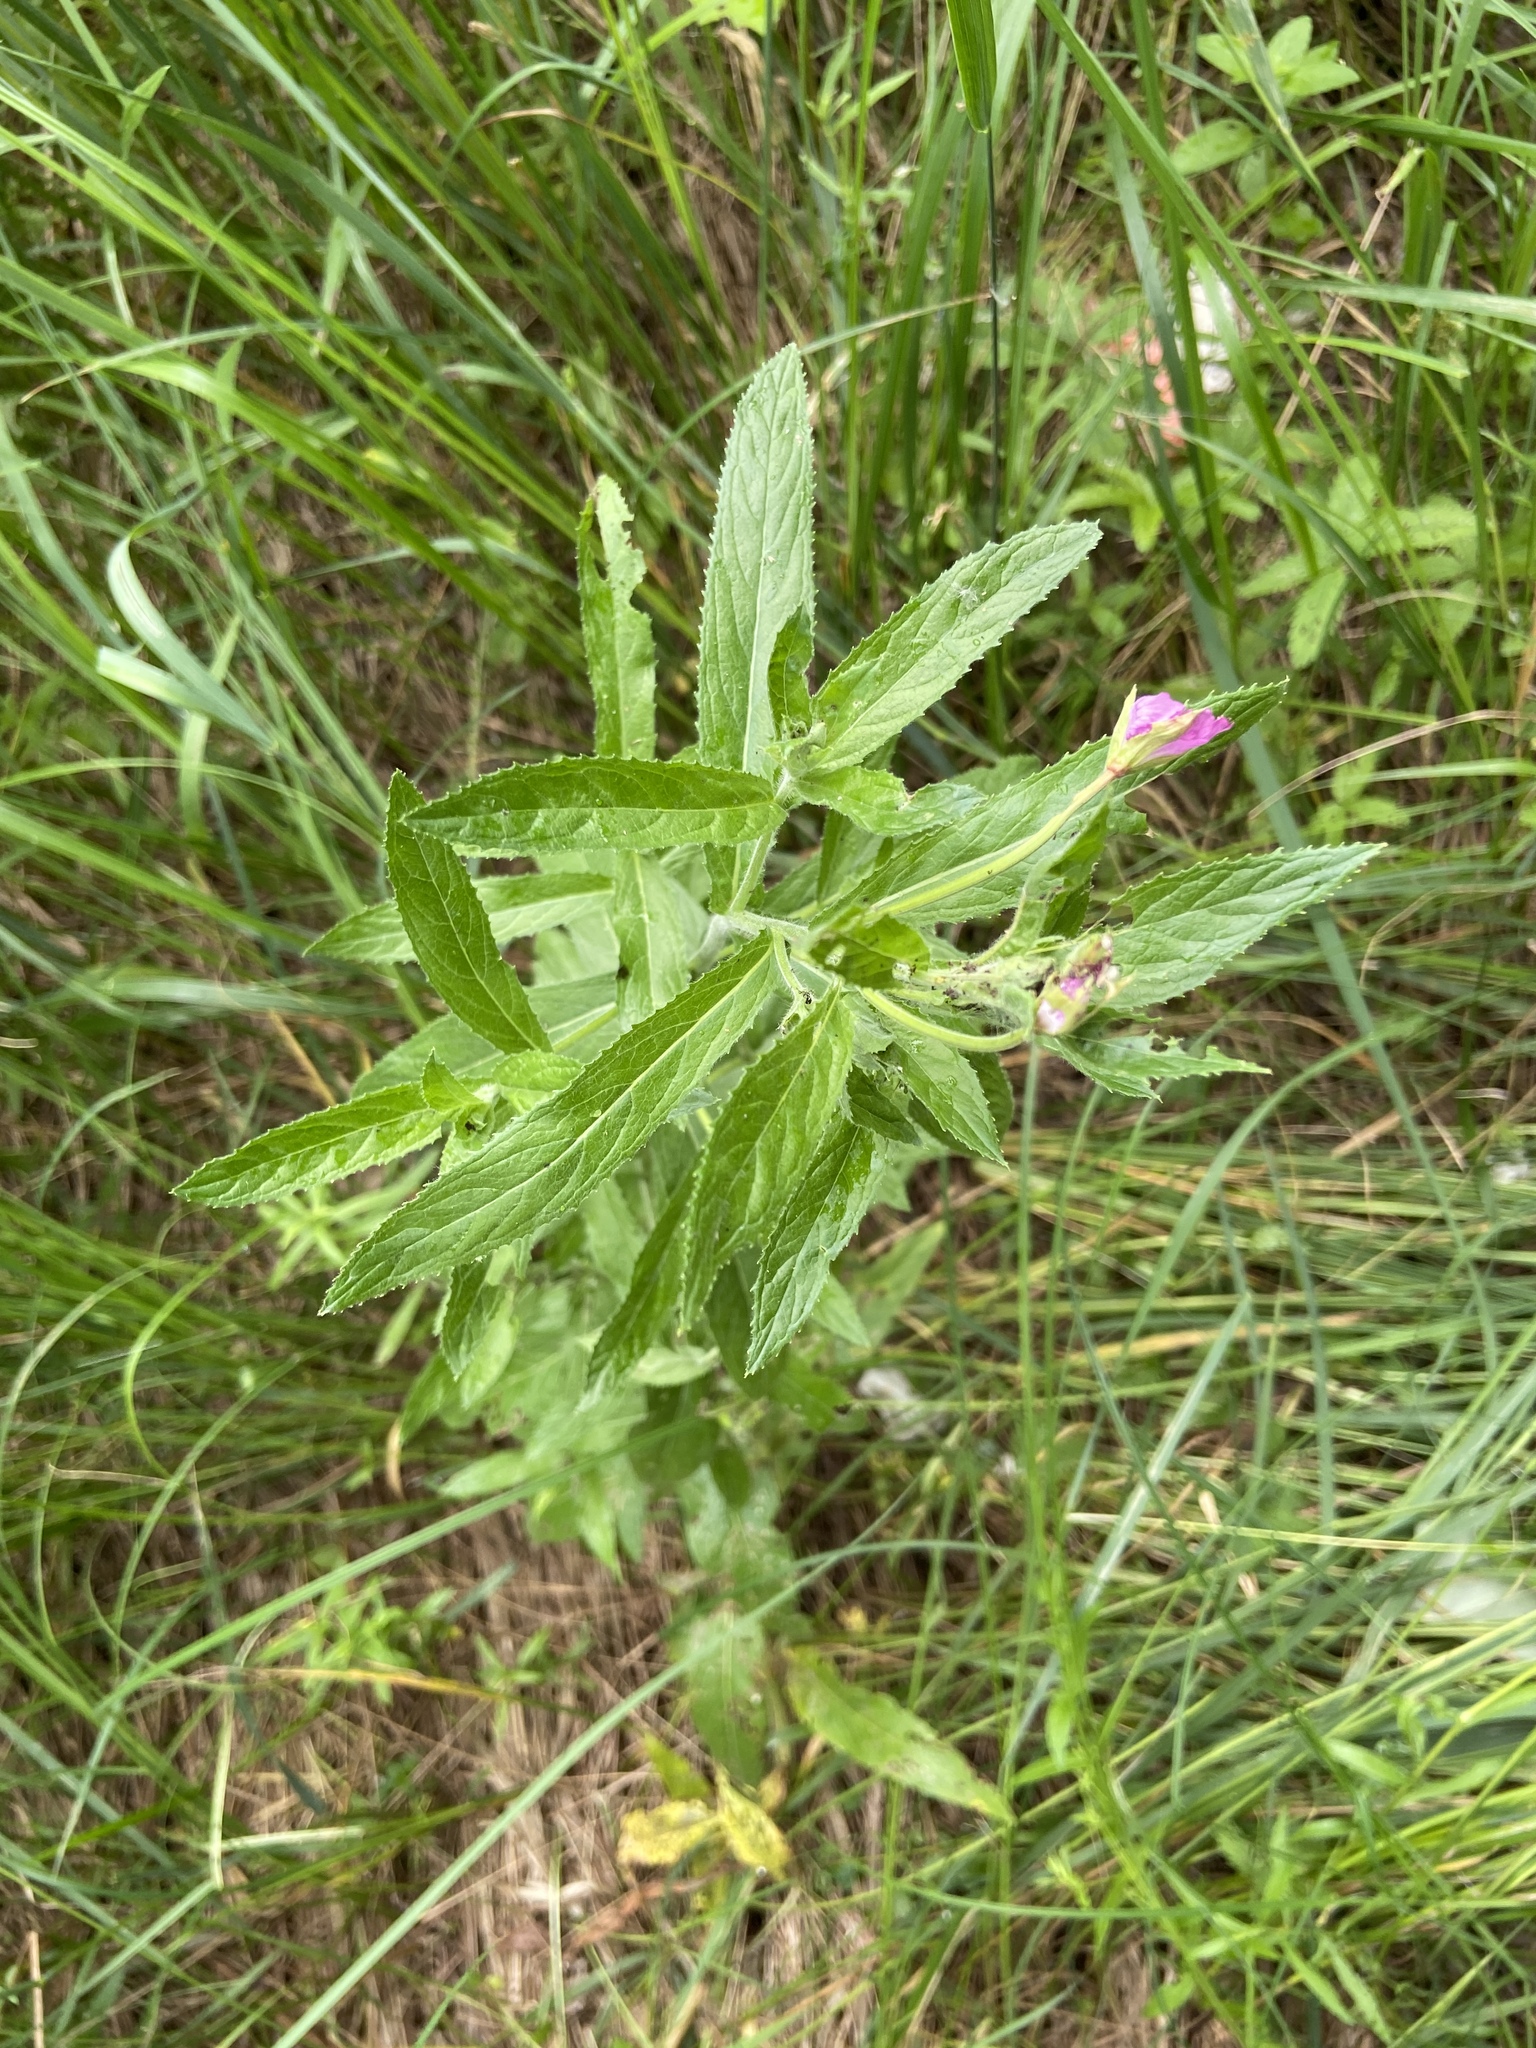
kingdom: Plantae
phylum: Tracheophyta
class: Magnoliopsida
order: Myrtales
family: Onagraceae
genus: Epilobium
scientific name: Epilobium hirsutum
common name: Great willowherb
